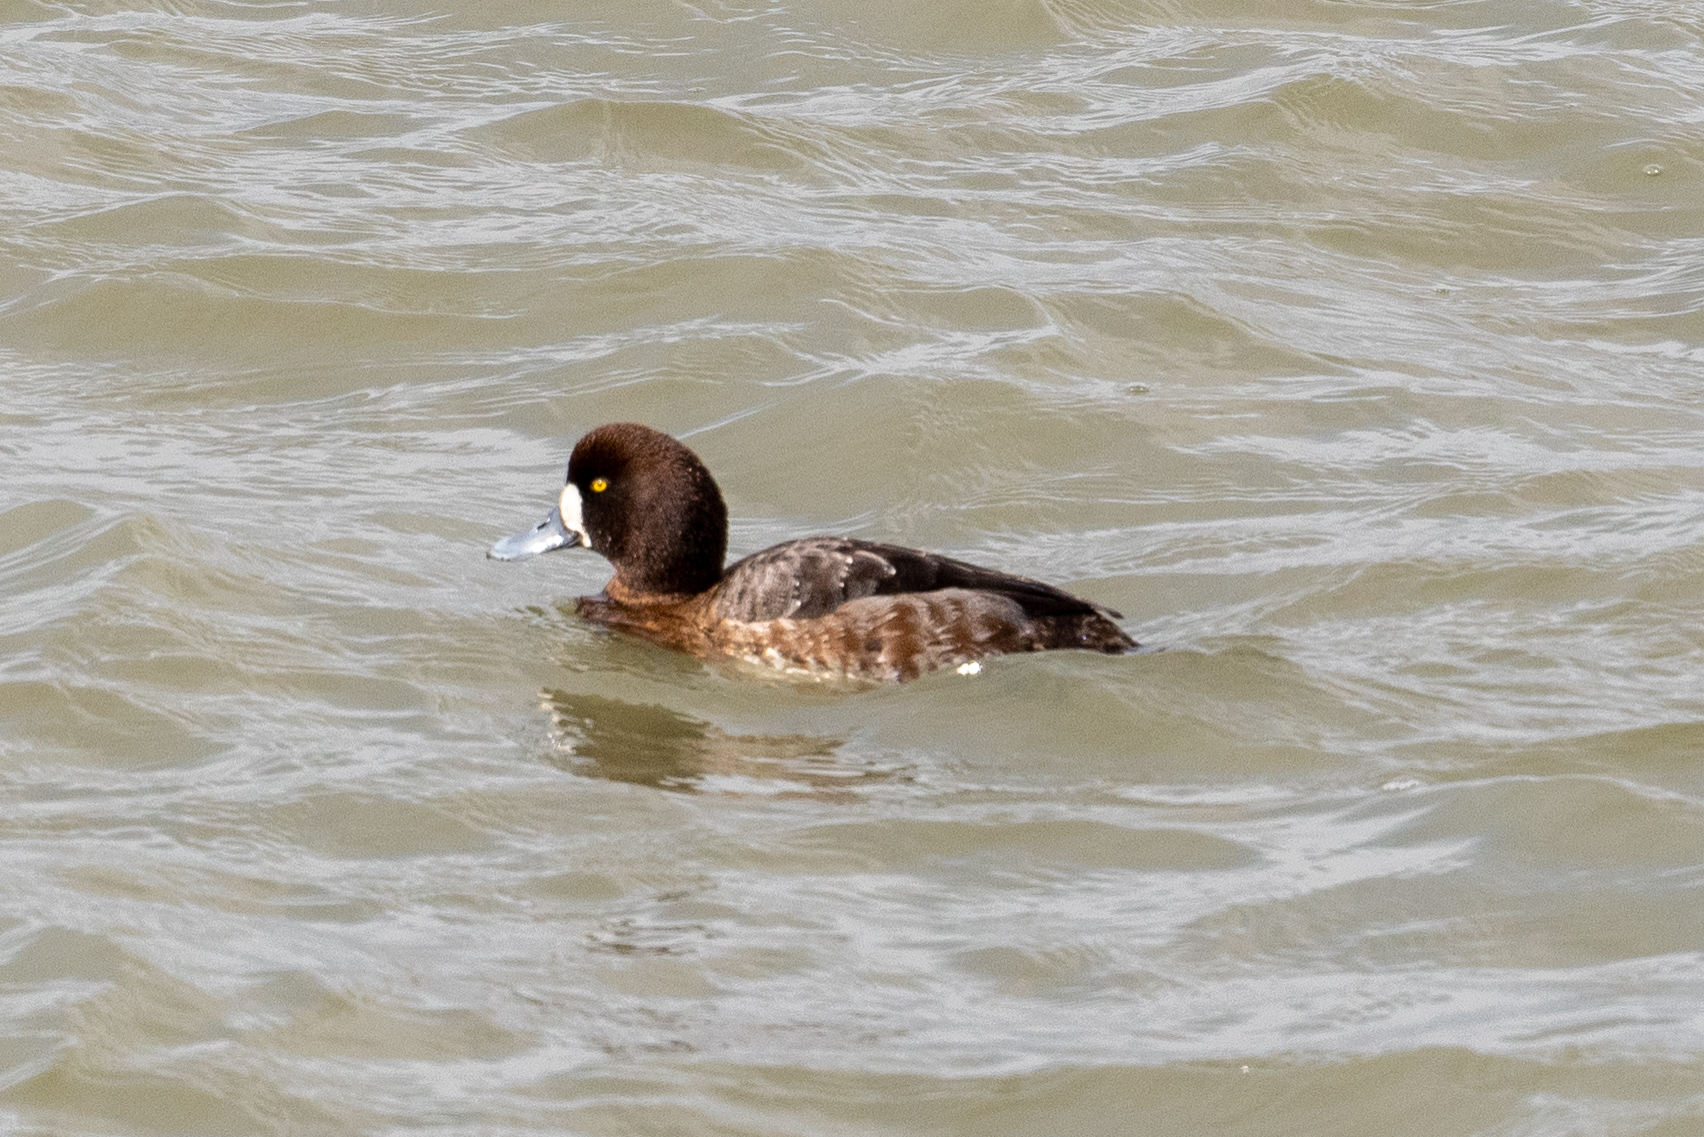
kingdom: Animalia
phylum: Chordata
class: Aves
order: Anseriformes
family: Anatidae
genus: Aythya
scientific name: Aythya marila
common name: Greater scaup
